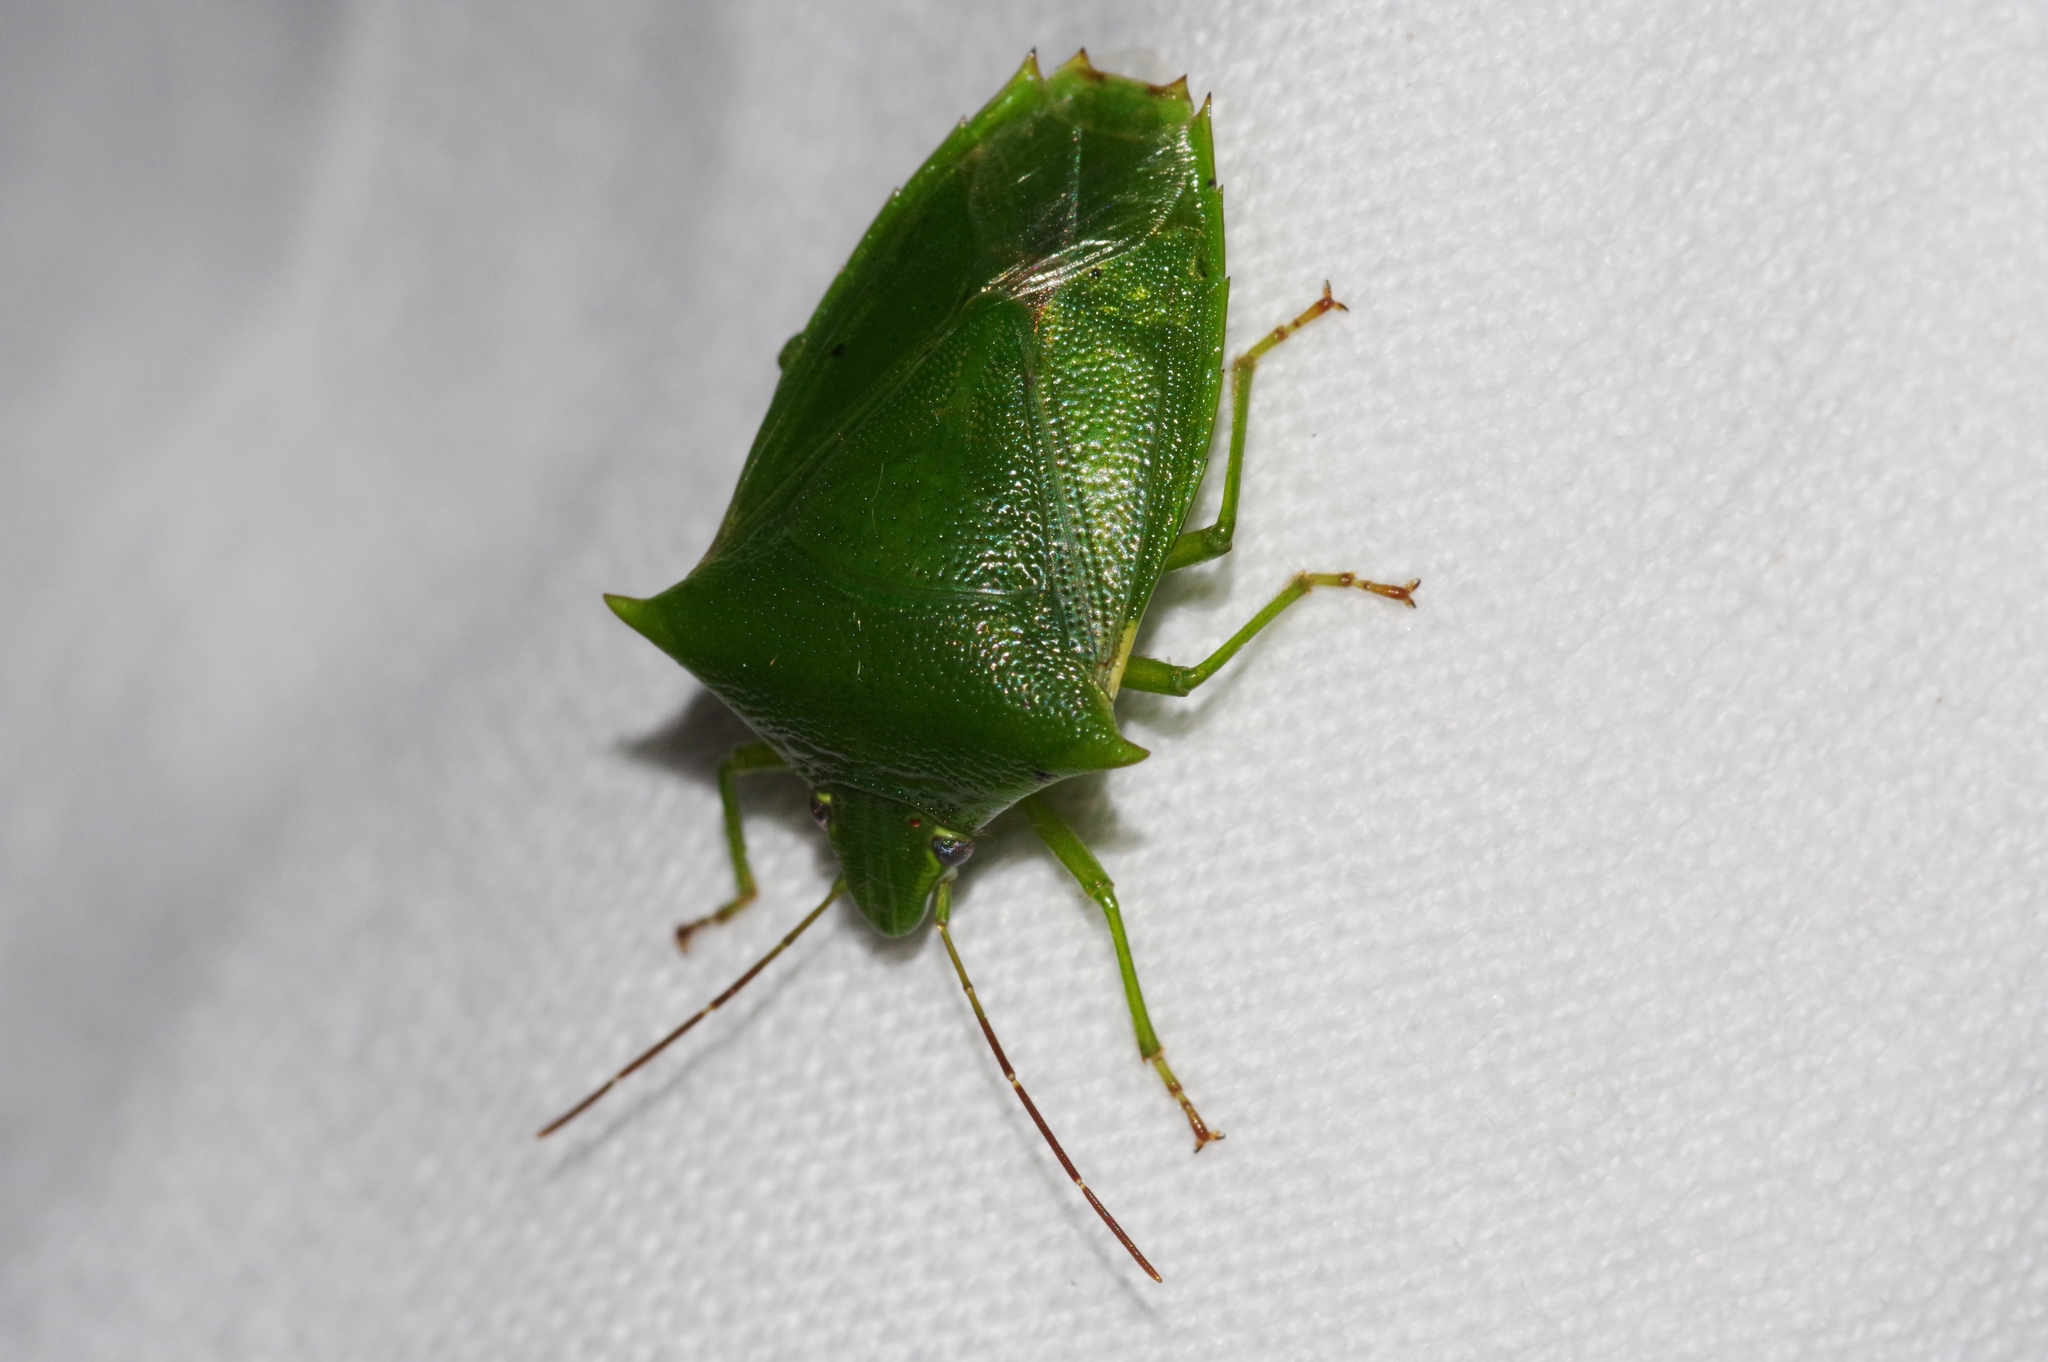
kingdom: Animalia
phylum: Arthropoda
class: Insecta
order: Hemiptera
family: Pentatomidae
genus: Vitellus
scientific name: Vitellus
